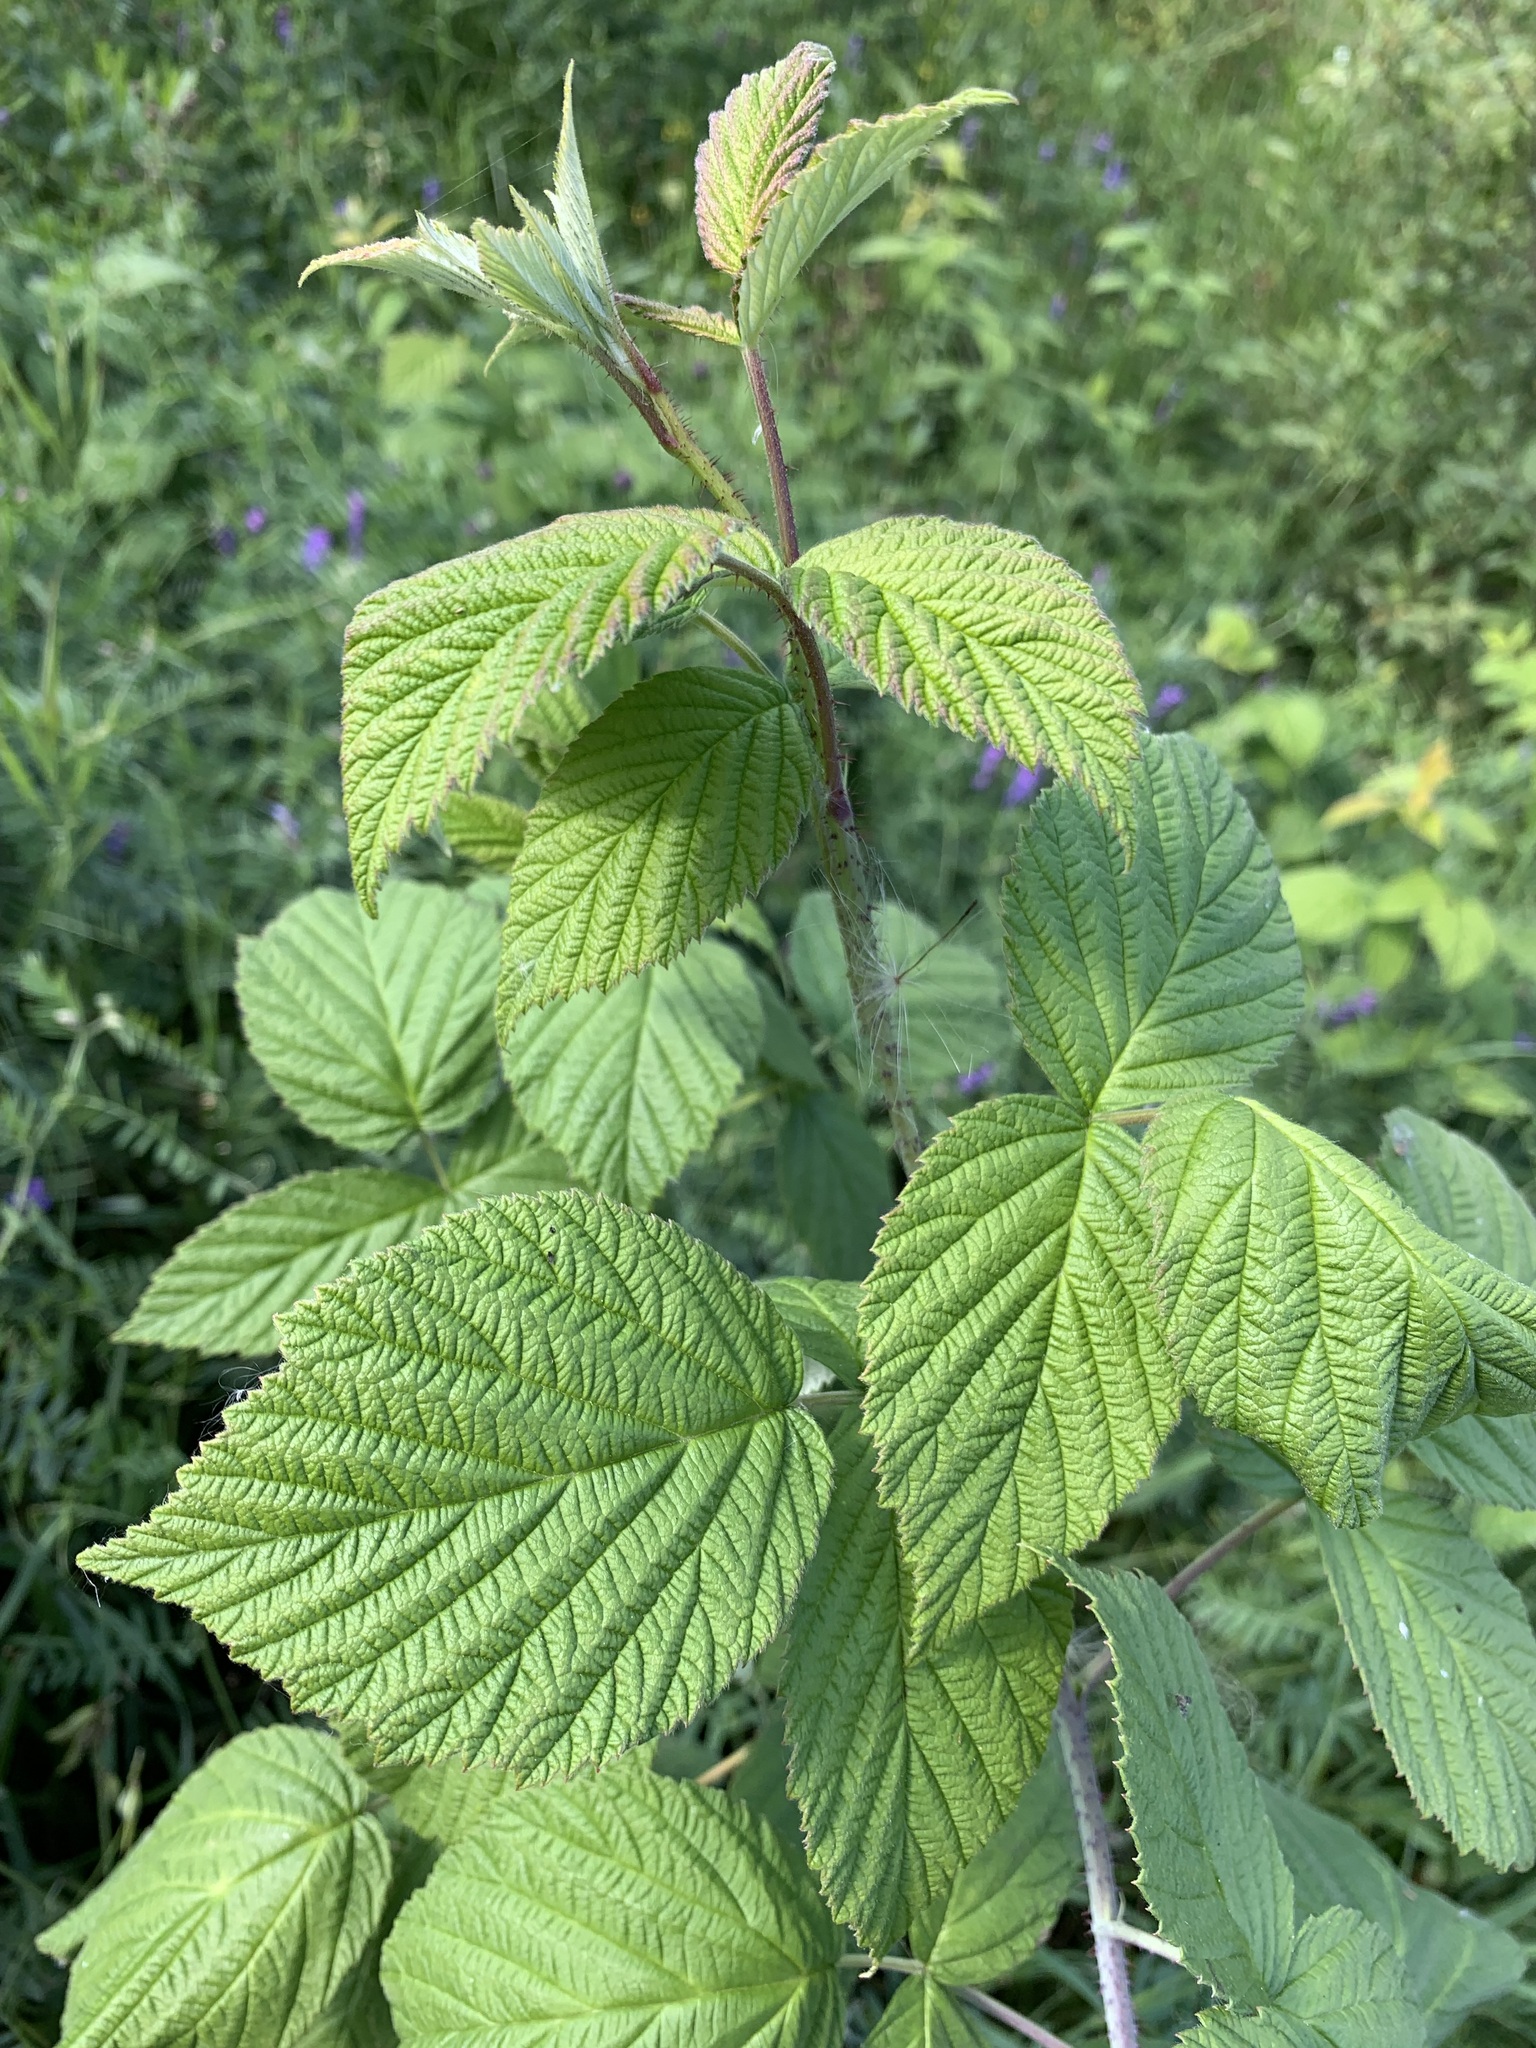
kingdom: Plantae
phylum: Tracheophyta
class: Magnoliopsida
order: Rosales
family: Rosaceae
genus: Rubus
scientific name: Rubus idaeus
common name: Raspberry
